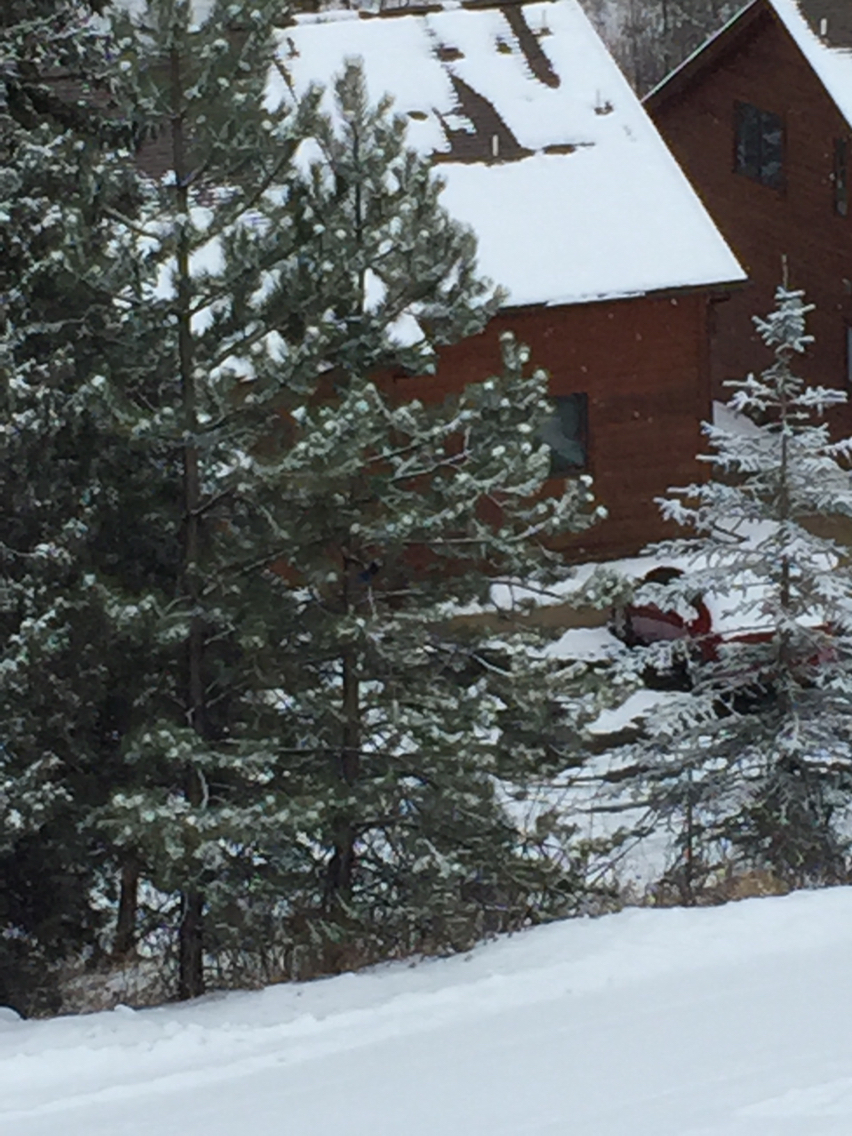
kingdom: Animalia
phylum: Chordata
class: Aves
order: Passeriformes
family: Corvidae
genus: Cyanocitta
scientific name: Cyanocitta stelleri
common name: Steller's jay
